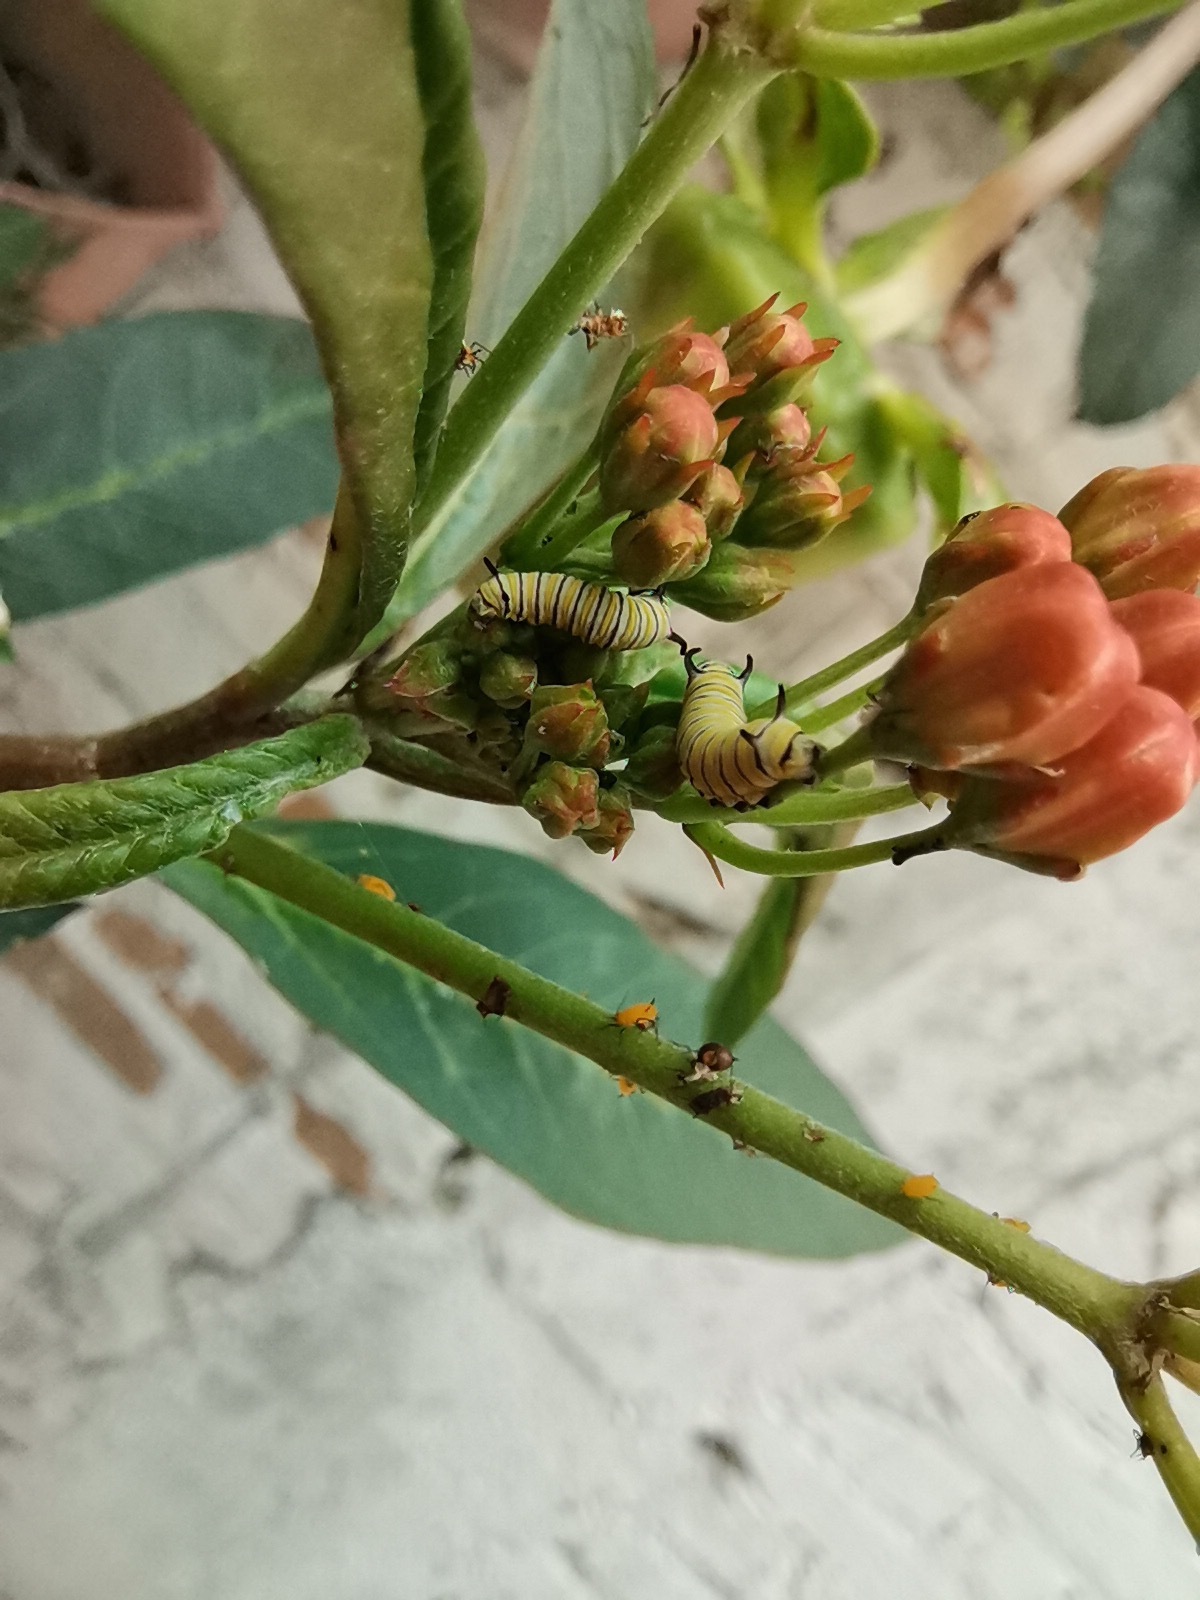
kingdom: Animalia
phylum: Arthropoda
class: Insecta
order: Lepidoptera
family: Nymphalidae
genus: Danaus
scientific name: Danaus plexippus
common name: Monarch
